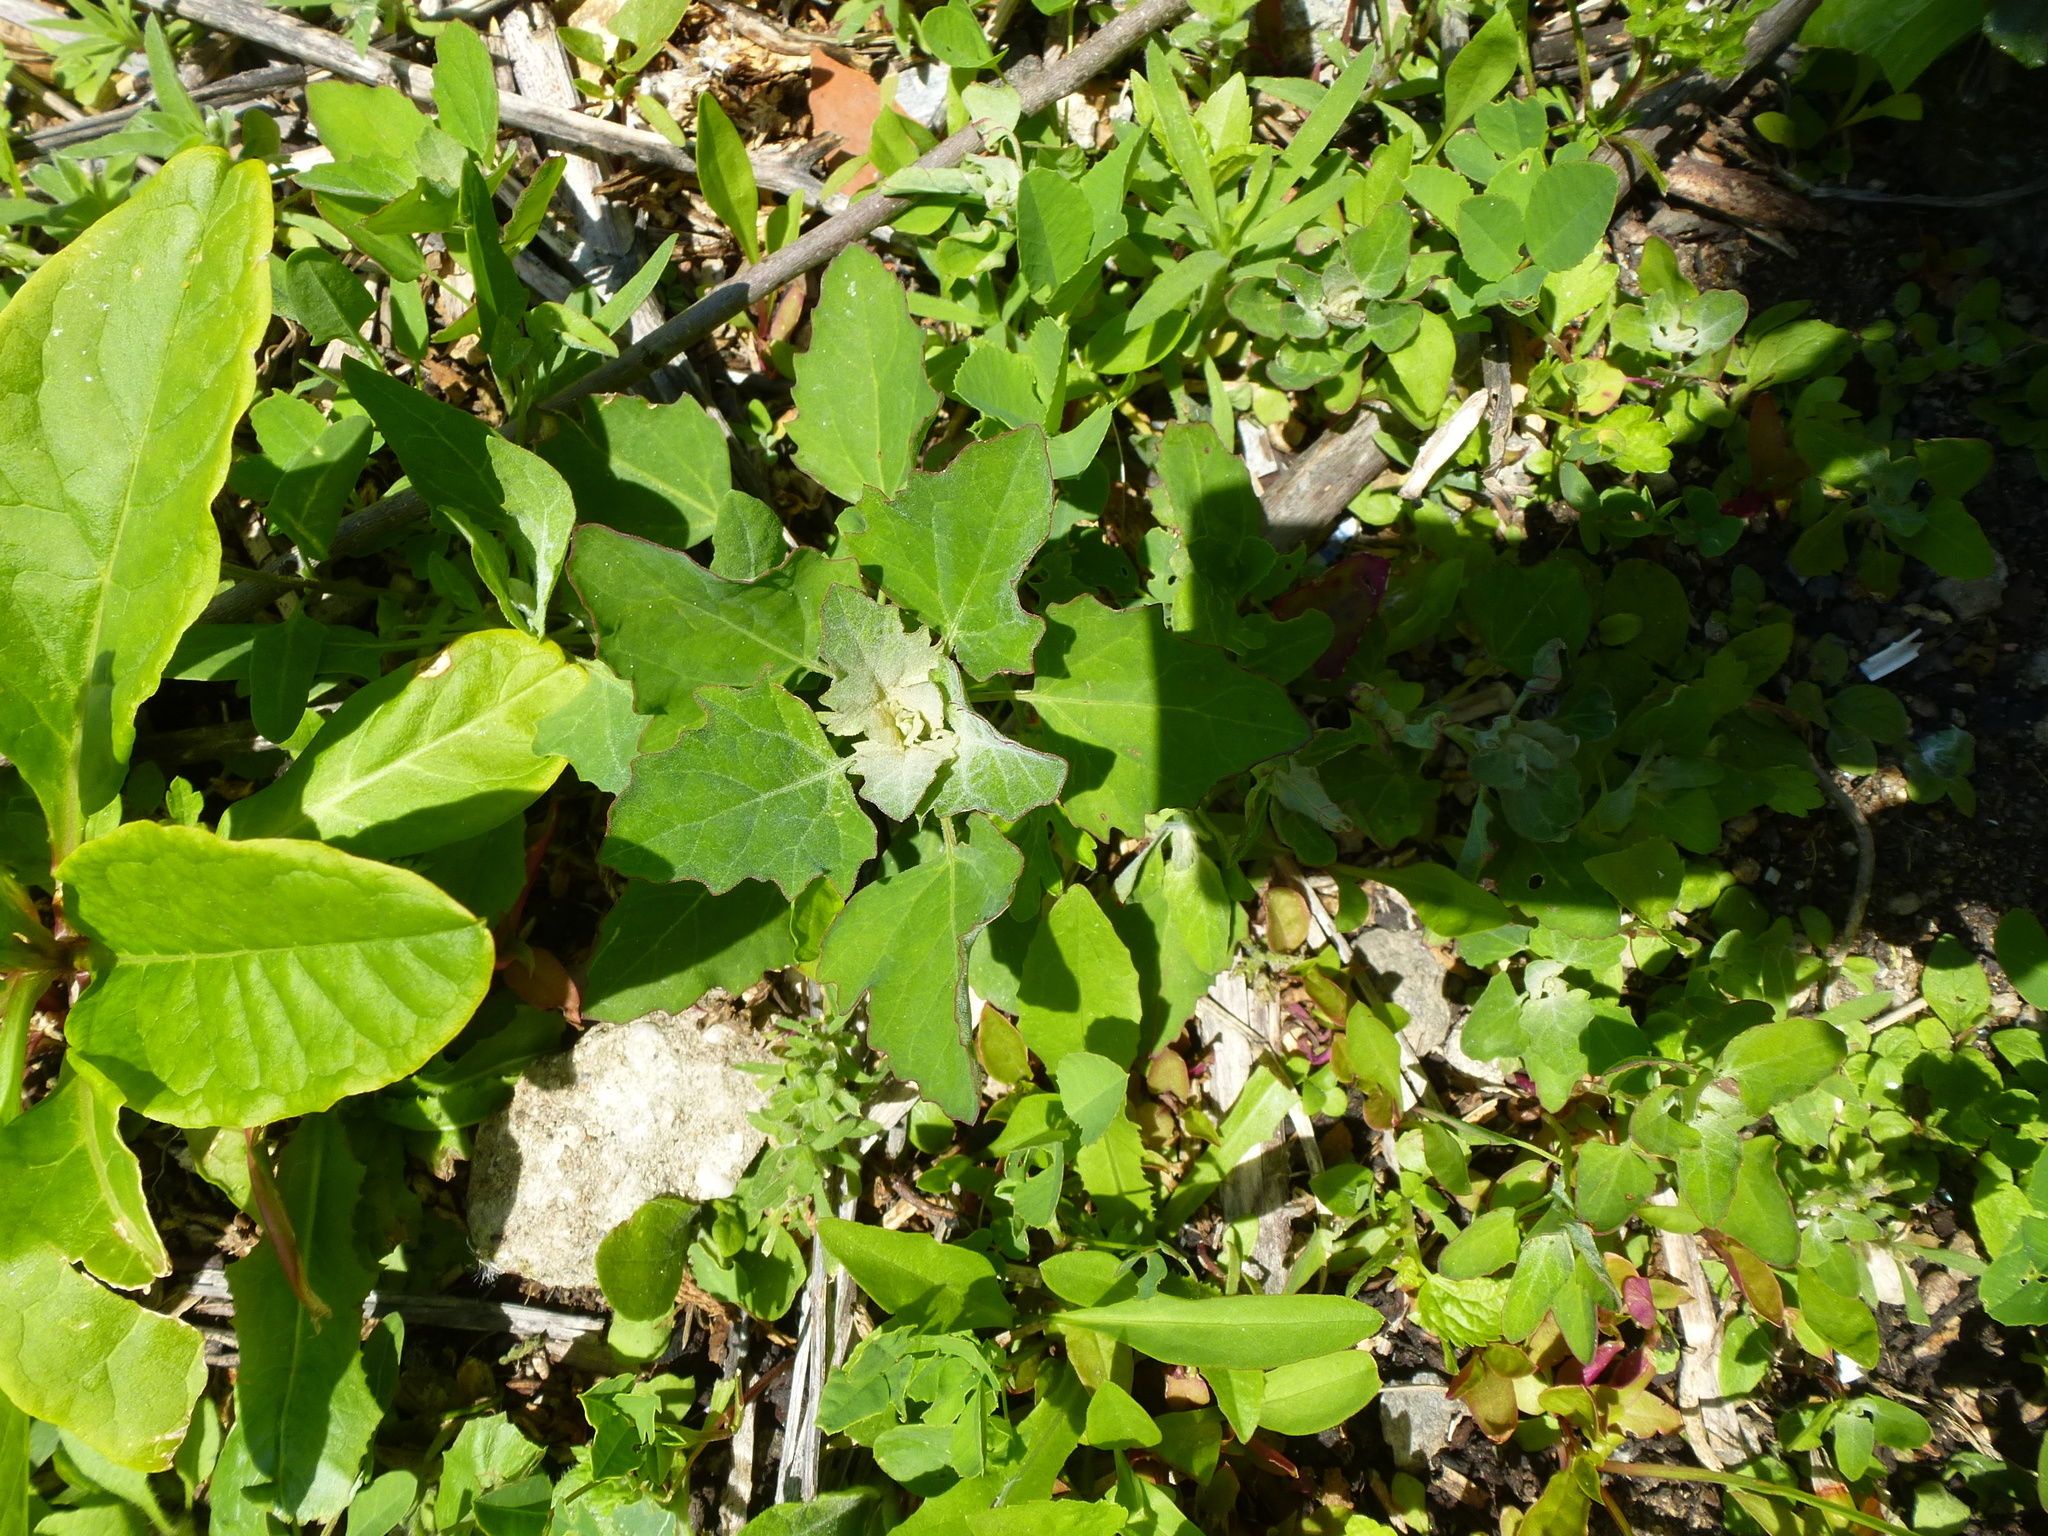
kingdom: Plantae
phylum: Tracheophyta
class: Magnoliopsida
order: Caryophyllales
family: Amaranthaceae
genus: Chenopodium
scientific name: Chenopodium album
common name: Fat-hen
